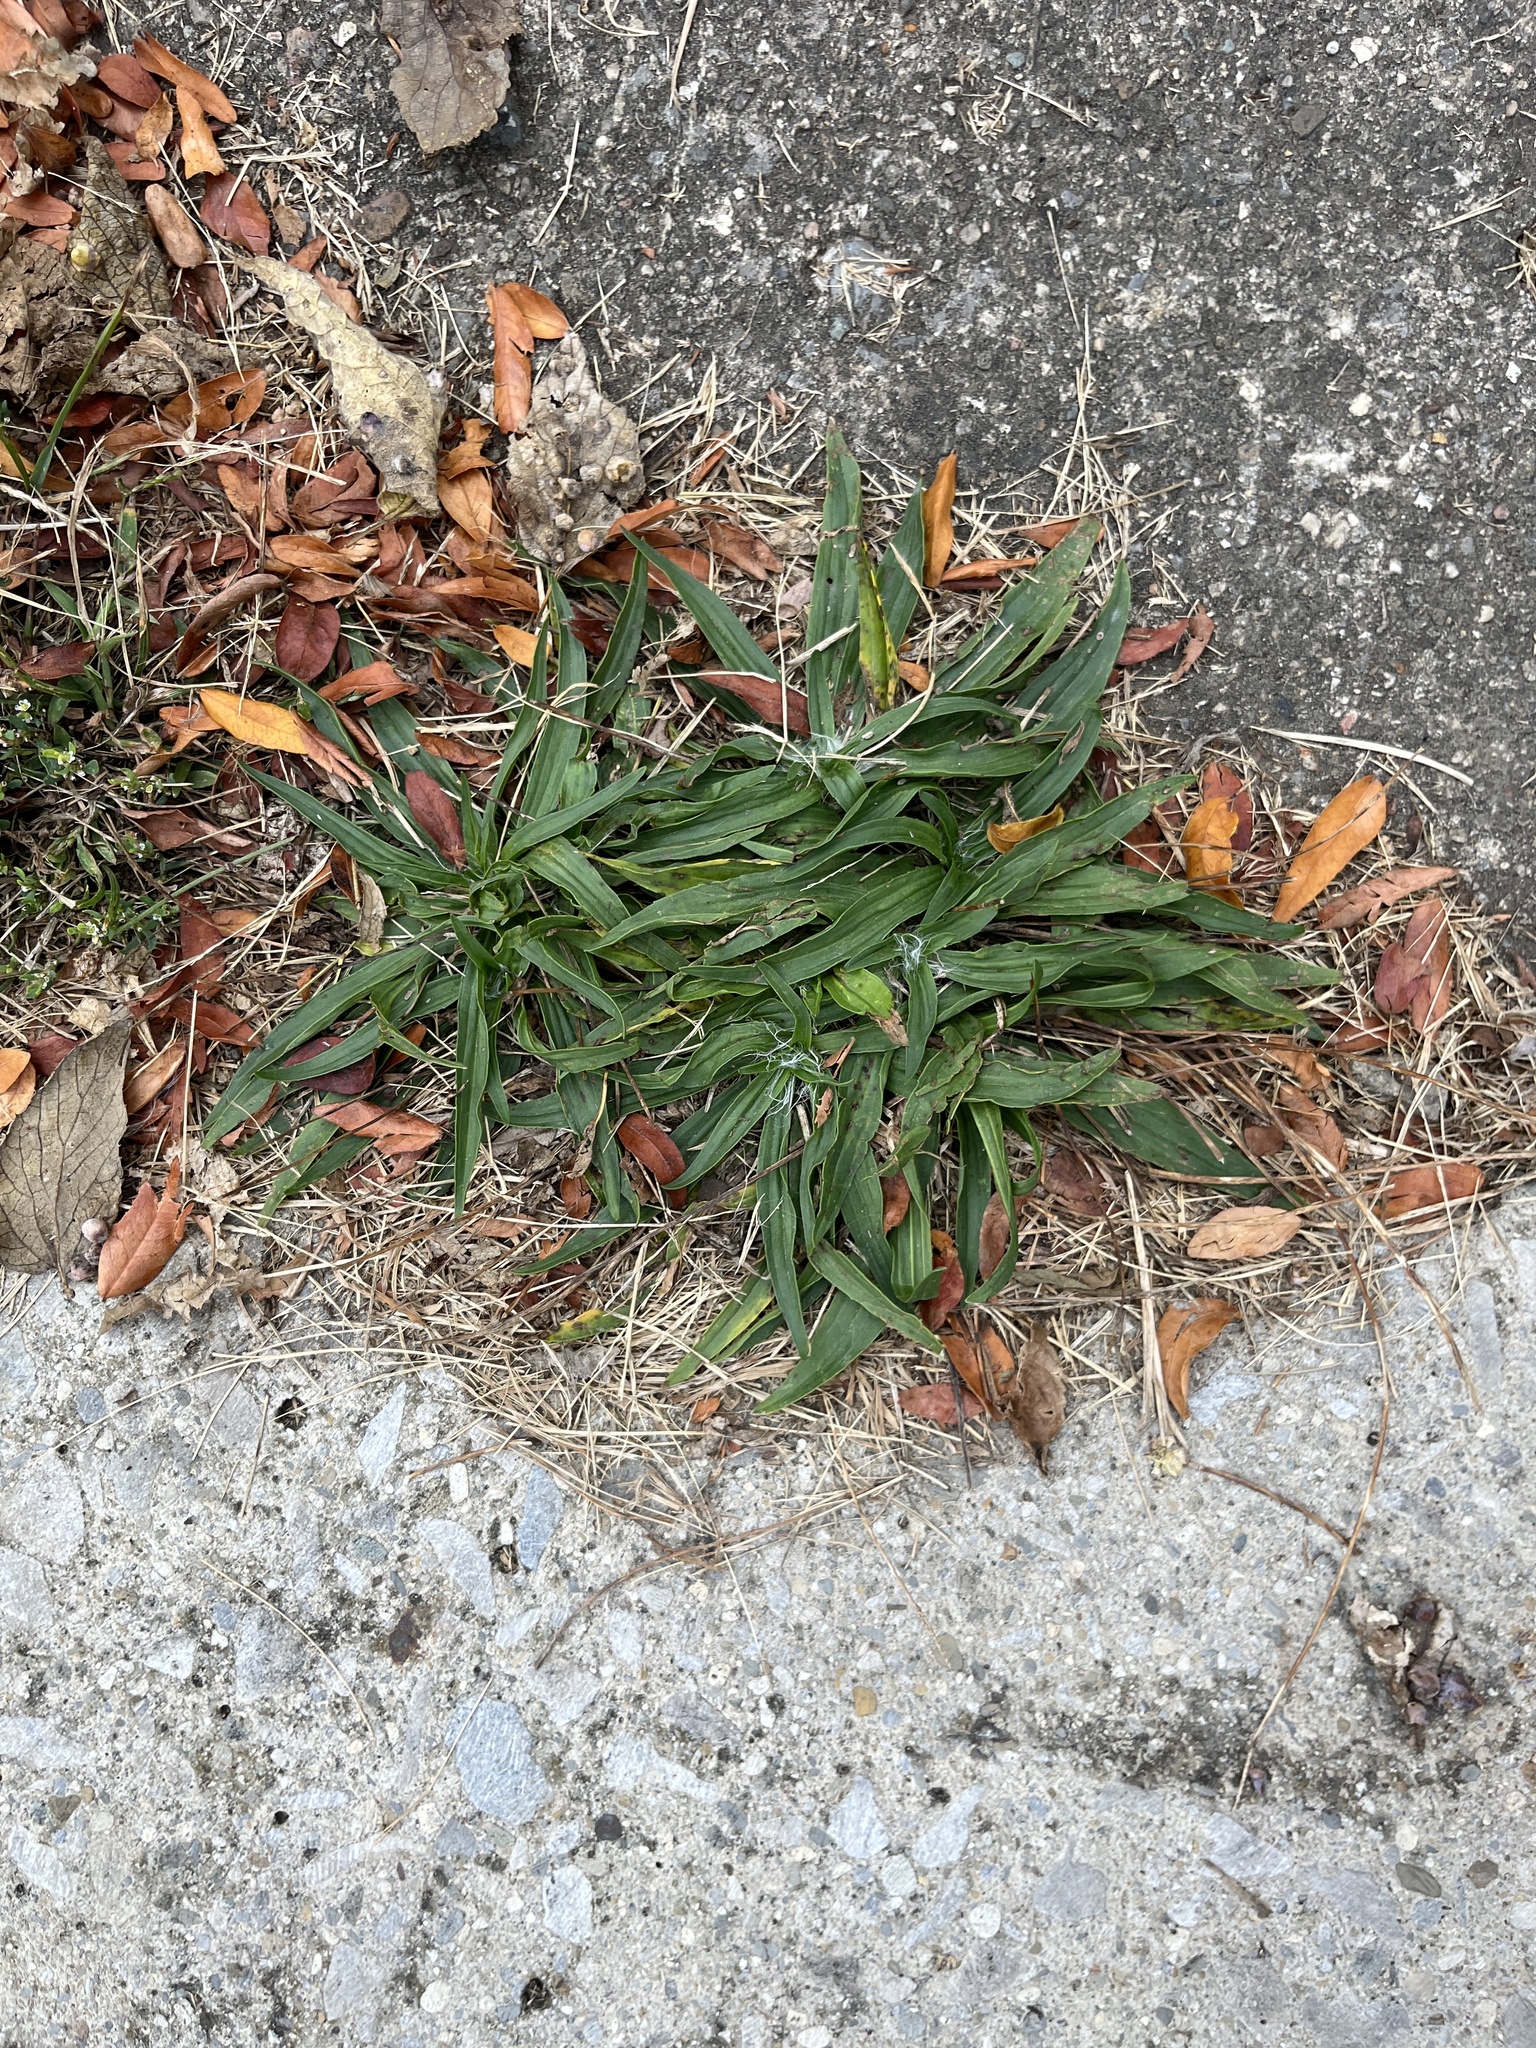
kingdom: Plantae
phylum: Tracheophyta
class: Magnoliopsida
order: Lamiales
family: Plantaginaceae
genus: Plantago
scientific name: Plantago lanceolata
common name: Ribwort plantain
